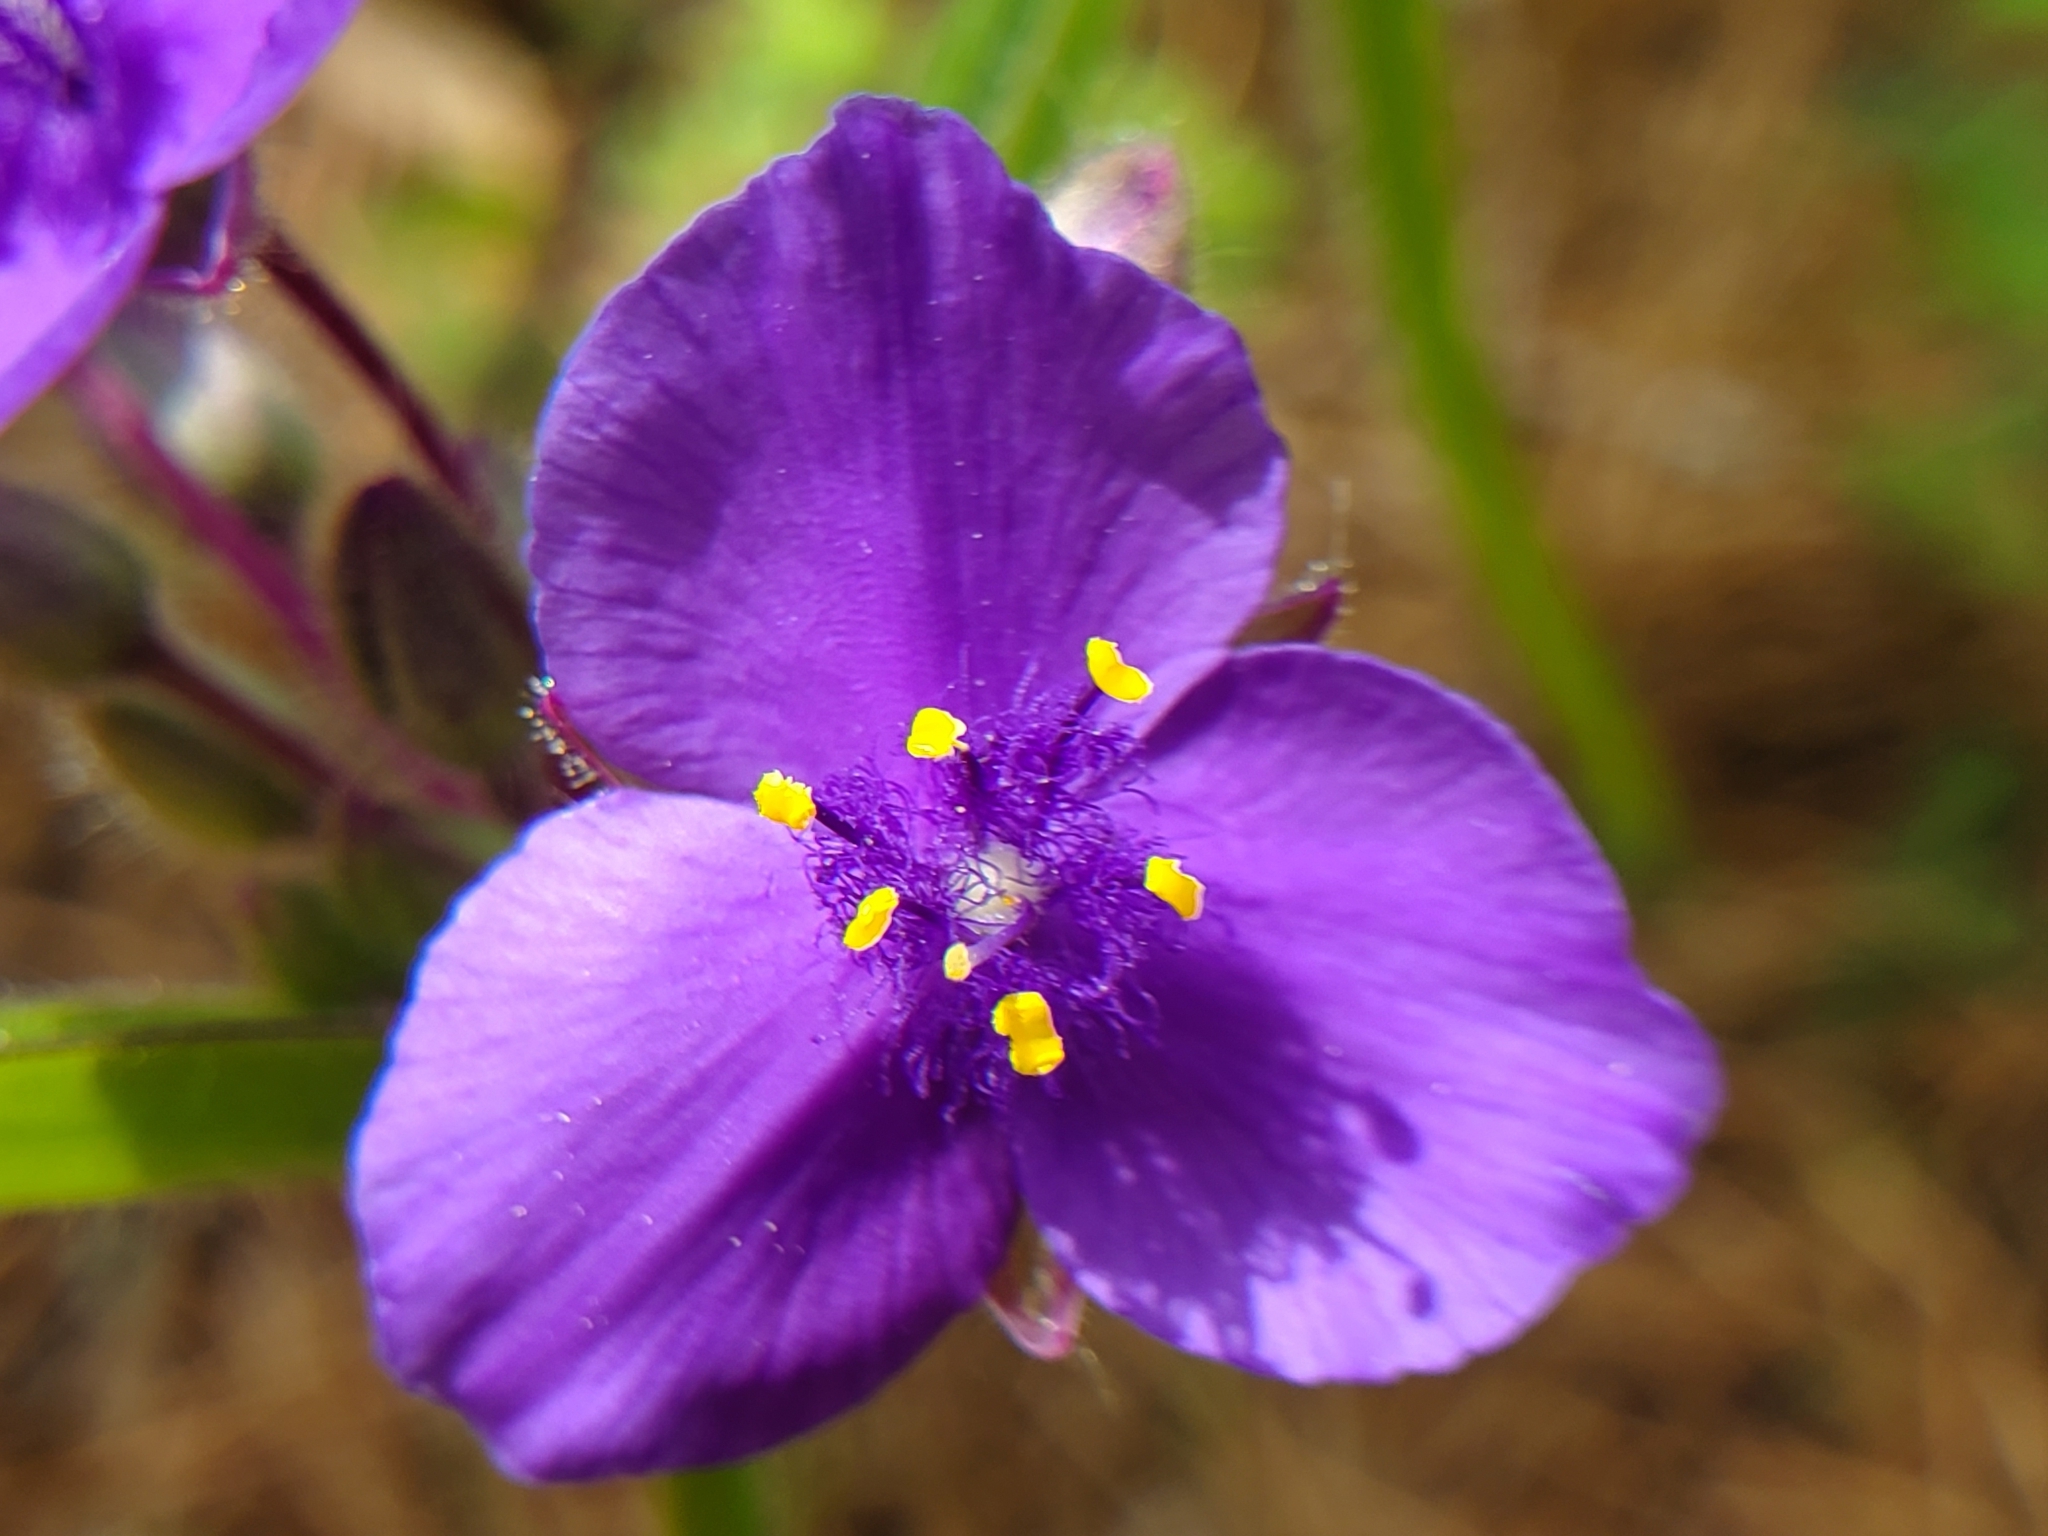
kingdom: Plantae
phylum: Tracheophyta
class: Liliopsida
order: Commelinales
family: Commelinaceae
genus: Tradescantia
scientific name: Tradescantia hirsuticaulis
